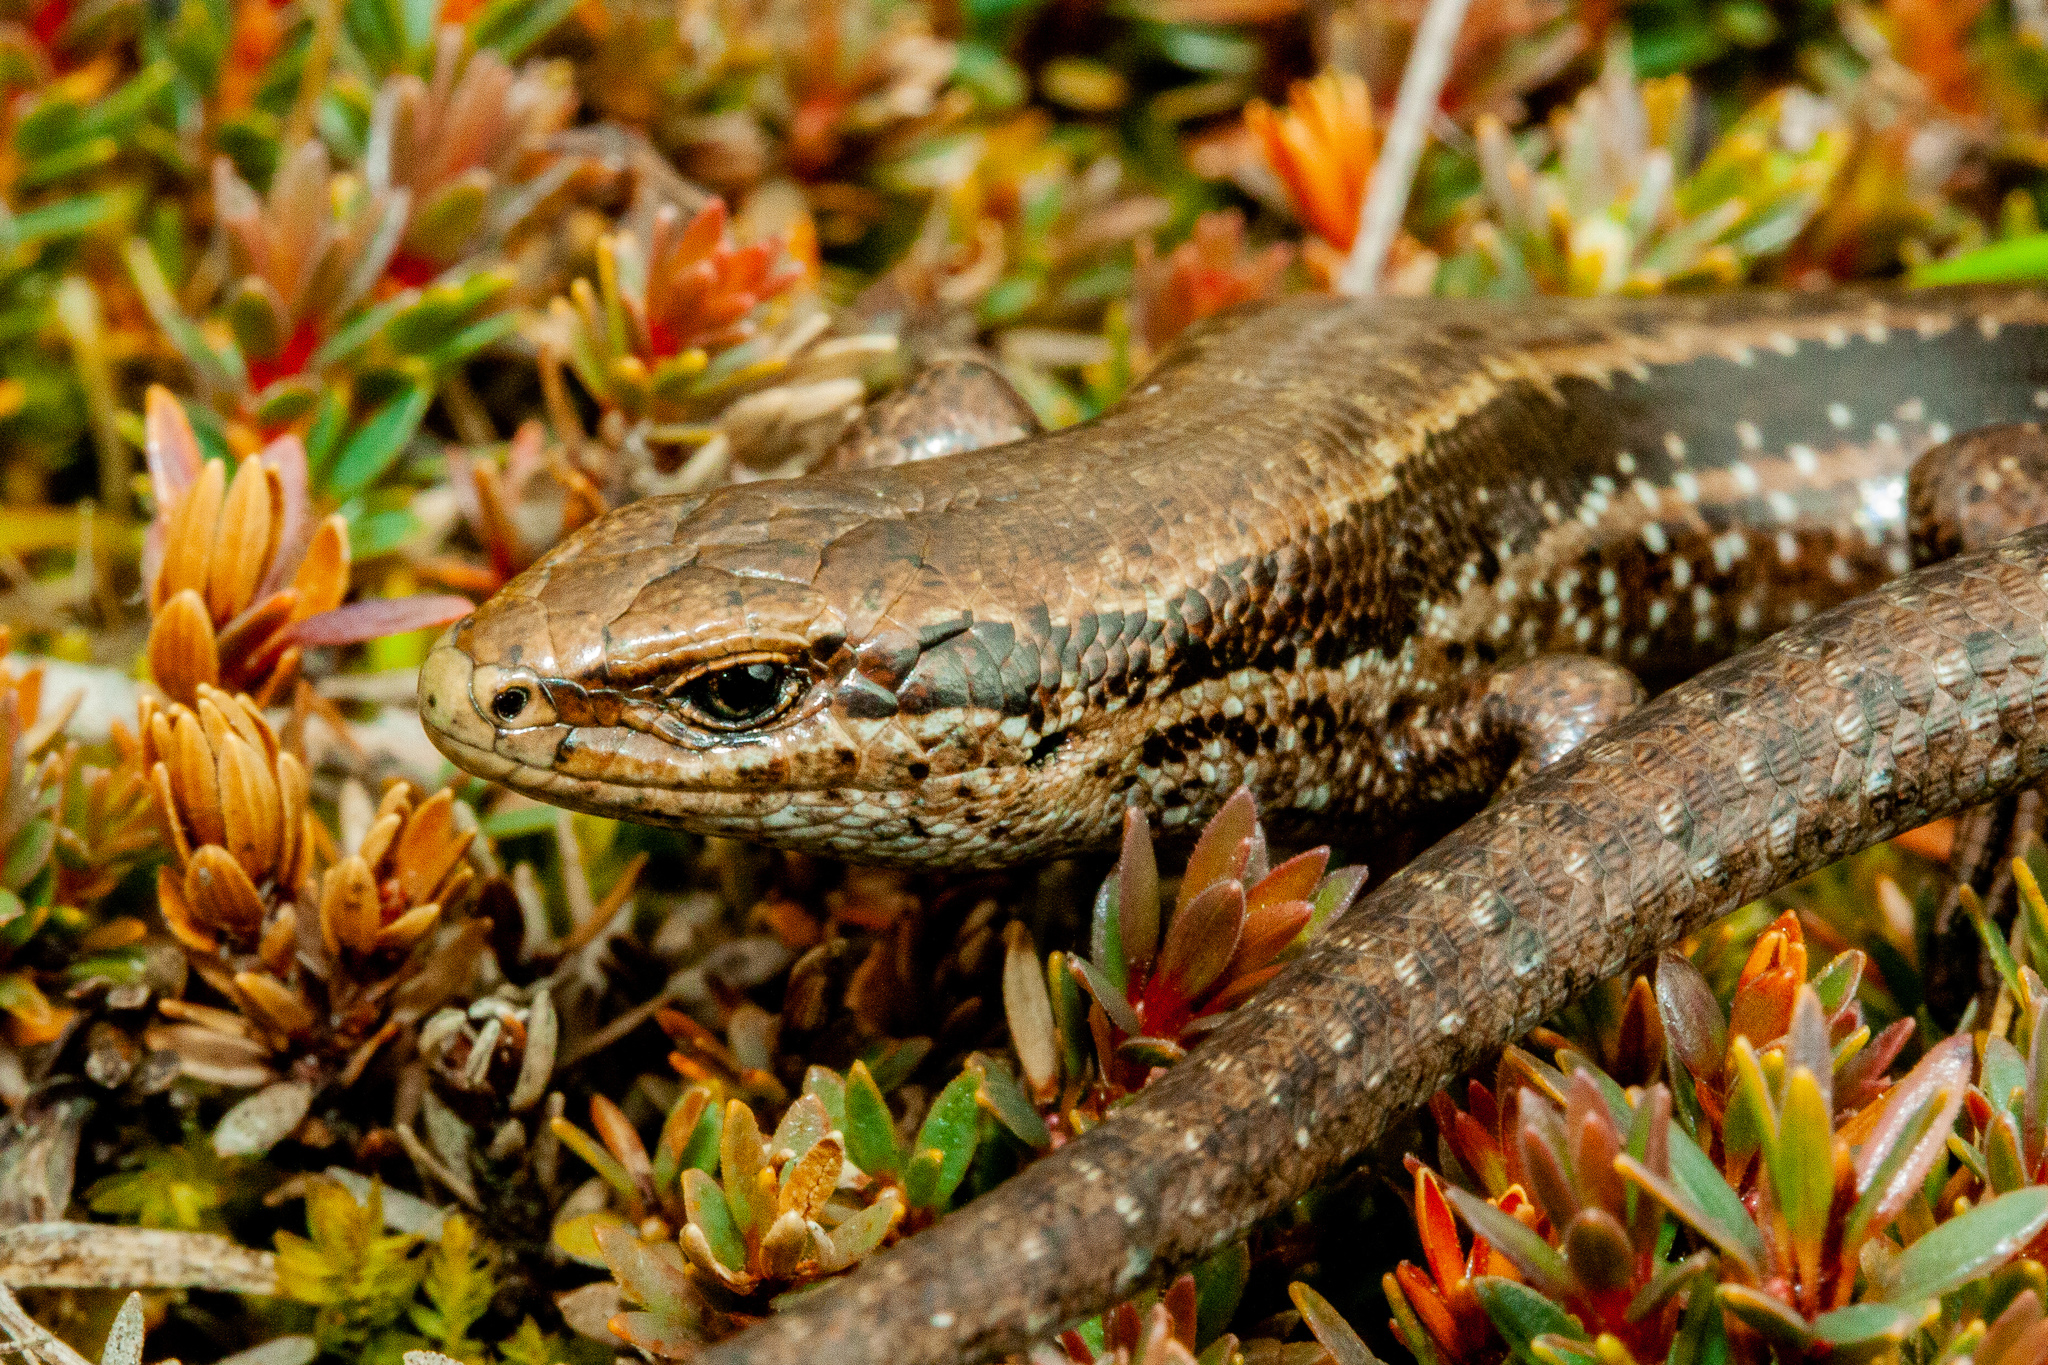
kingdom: Animalia
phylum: Chordata
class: Squamata
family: Scincidae
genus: Oligosoma
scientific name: Oligosoma burganae
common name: Burgan skink
